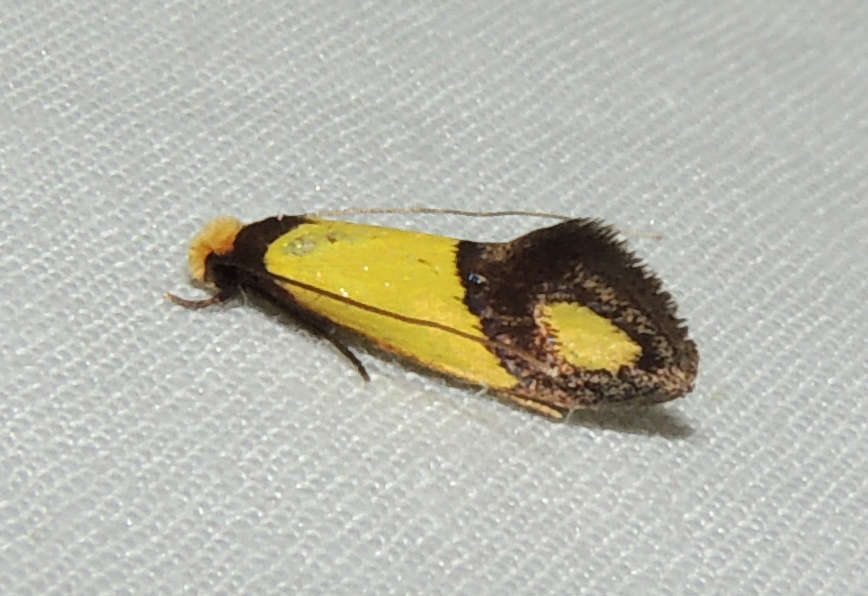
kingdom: Animalia
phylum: Arthropoda
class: Insecta
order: Lepidoptera
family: Tineidae
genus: Edosa
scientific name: Edosa fraudulens
